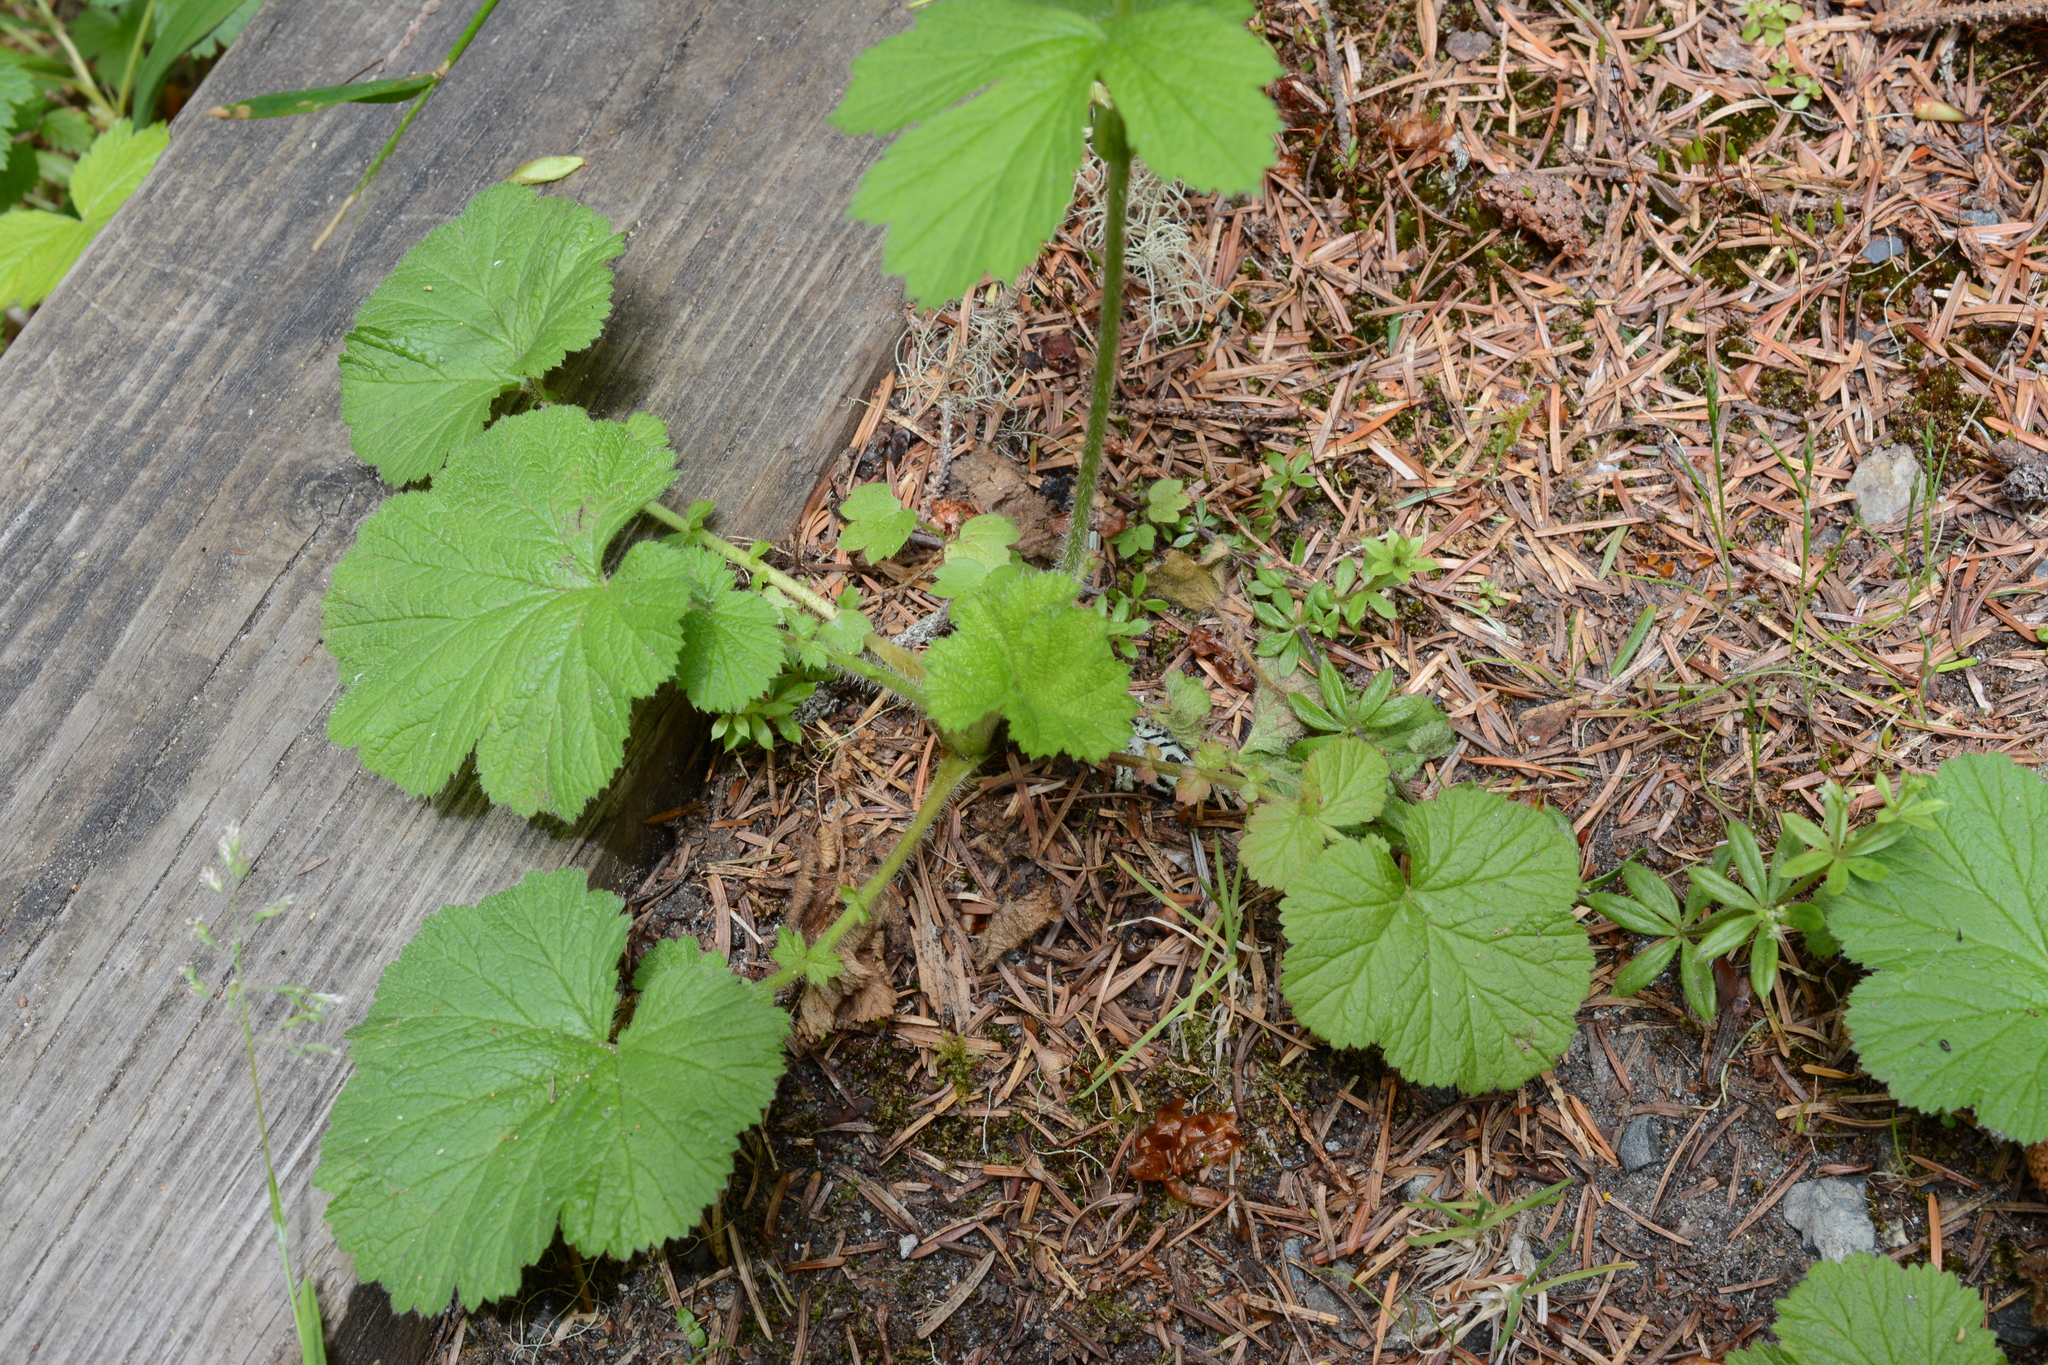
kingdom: Plantae
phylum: Tracheophyta
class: Magnoliopsida
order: Rosales
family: Rosaceae
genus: Geum
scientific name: Geum macrophyllum
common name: Large-leaved avens
